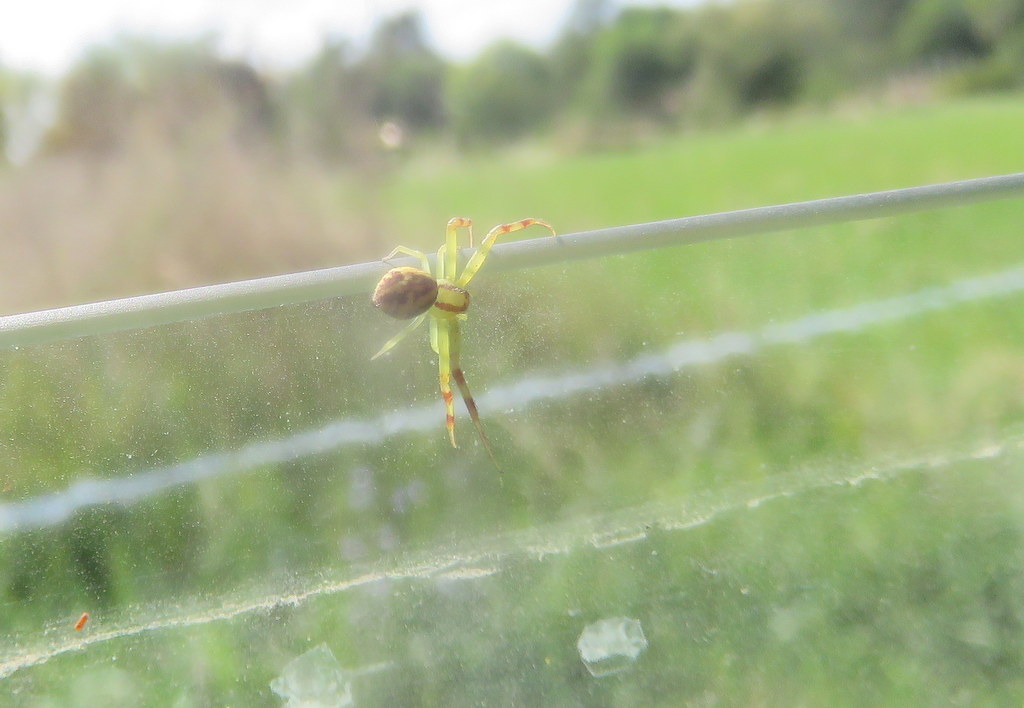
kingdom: Animalia
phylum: Arthropoda
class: Arachnida
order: Araneae
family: Thomisidae
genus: Misumenops
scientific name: Misumenops
